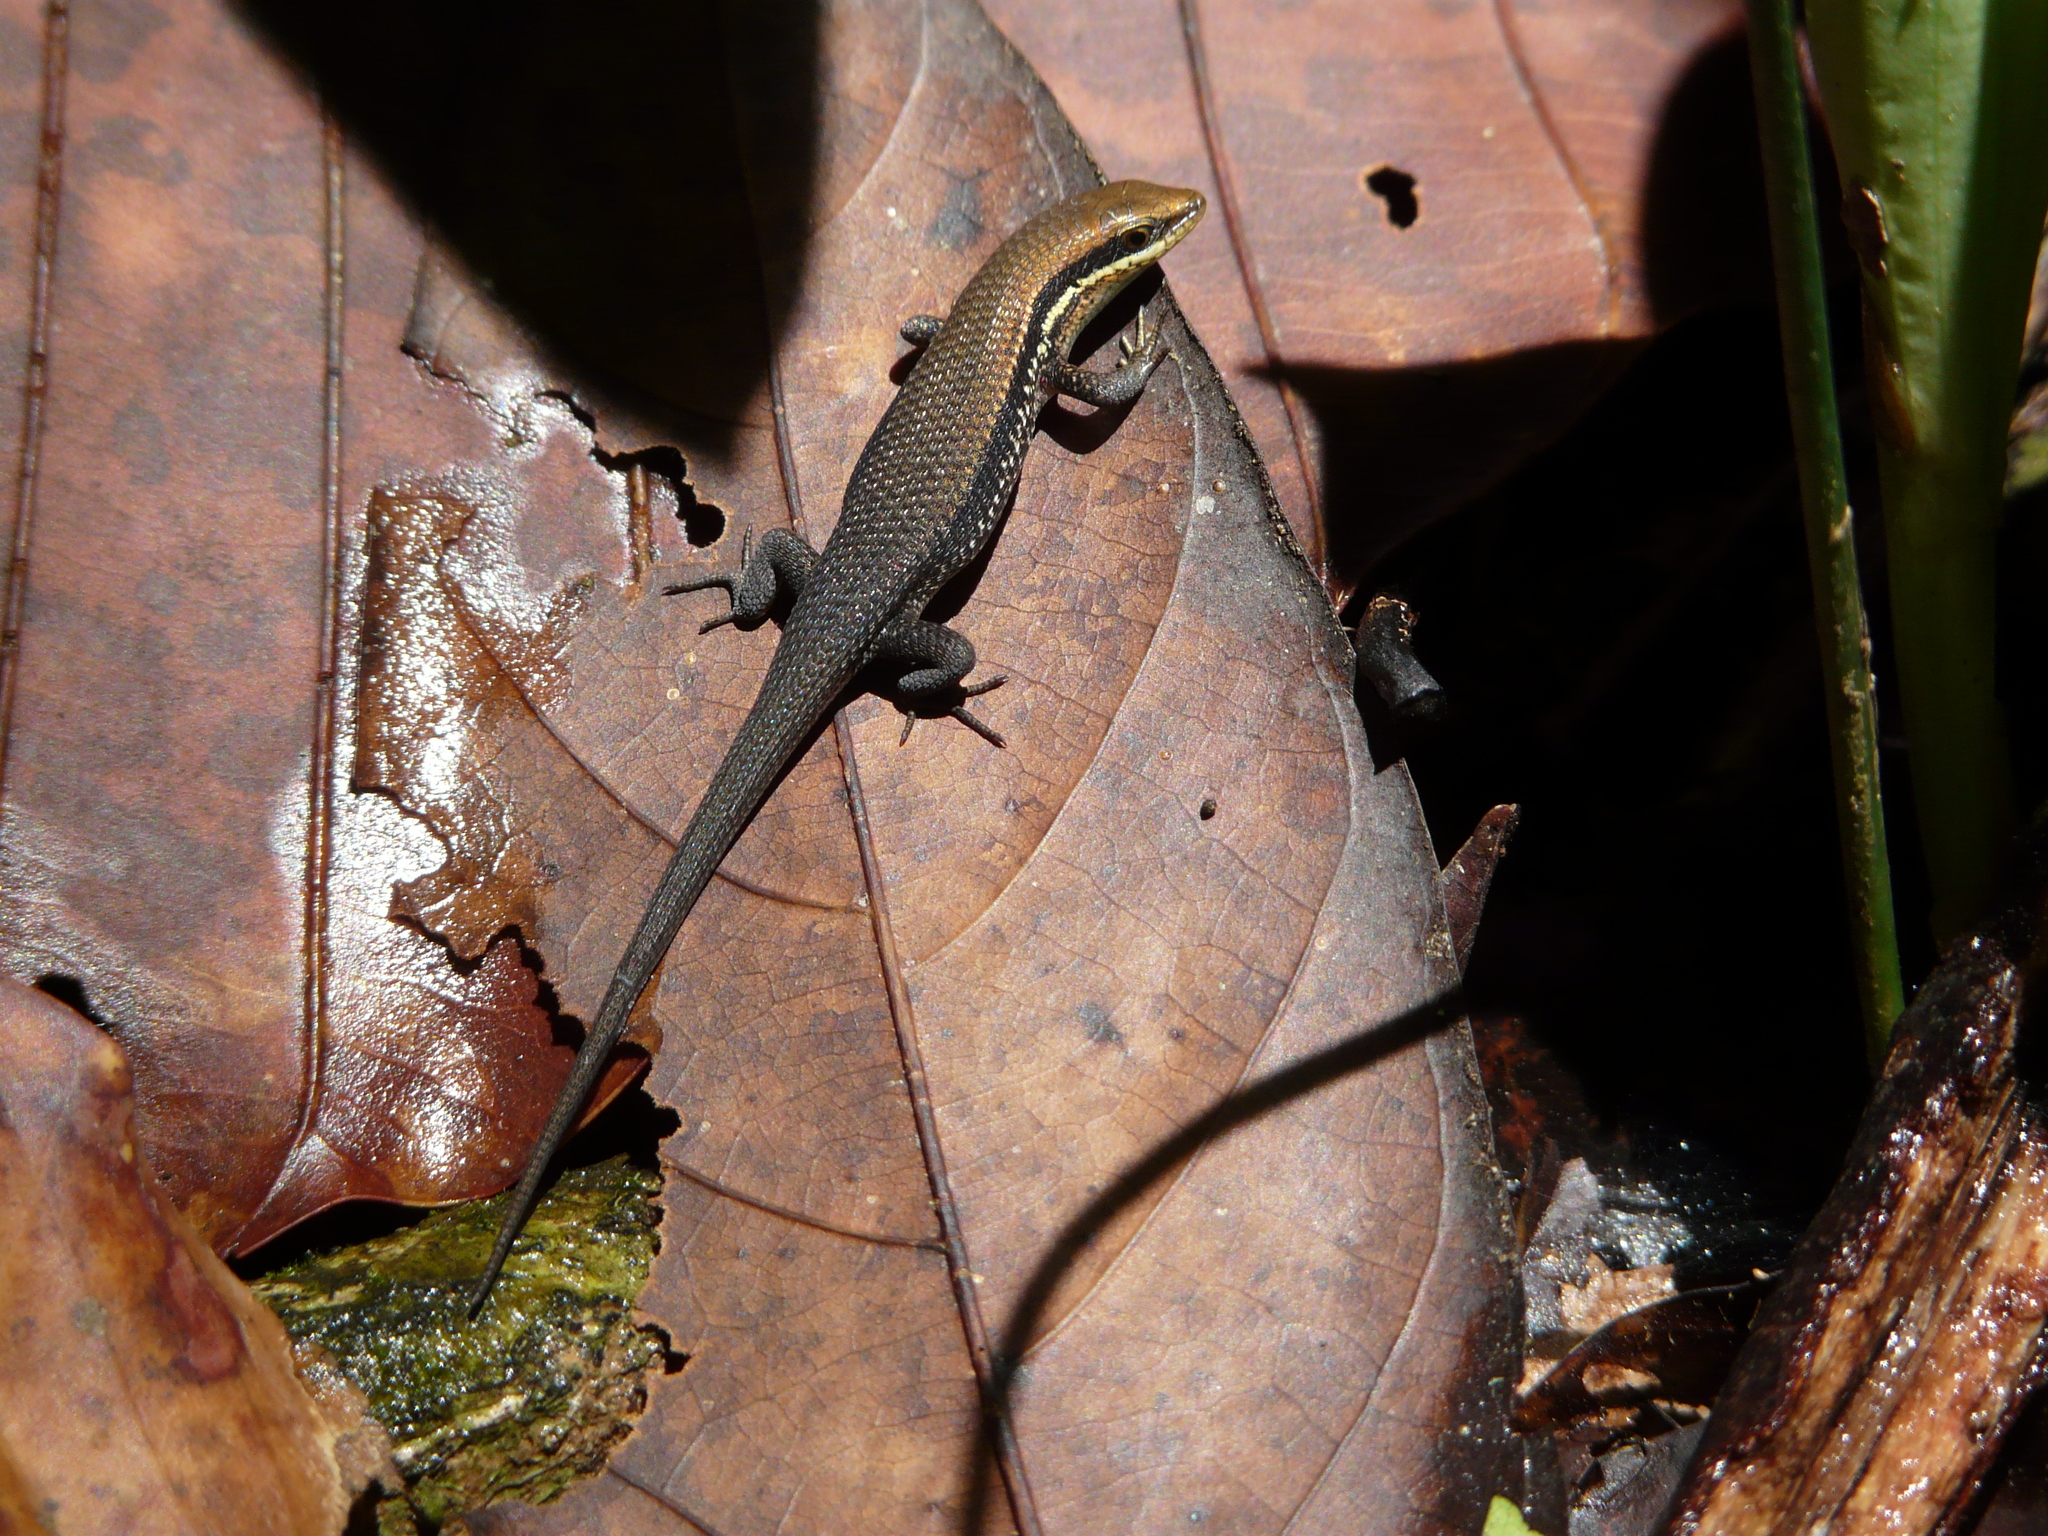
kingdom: Animalia
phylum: Chordata
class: Squamata
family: Scincidae
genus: Eutropis
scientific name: Eutropis macularia
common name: Bronze mabuya
